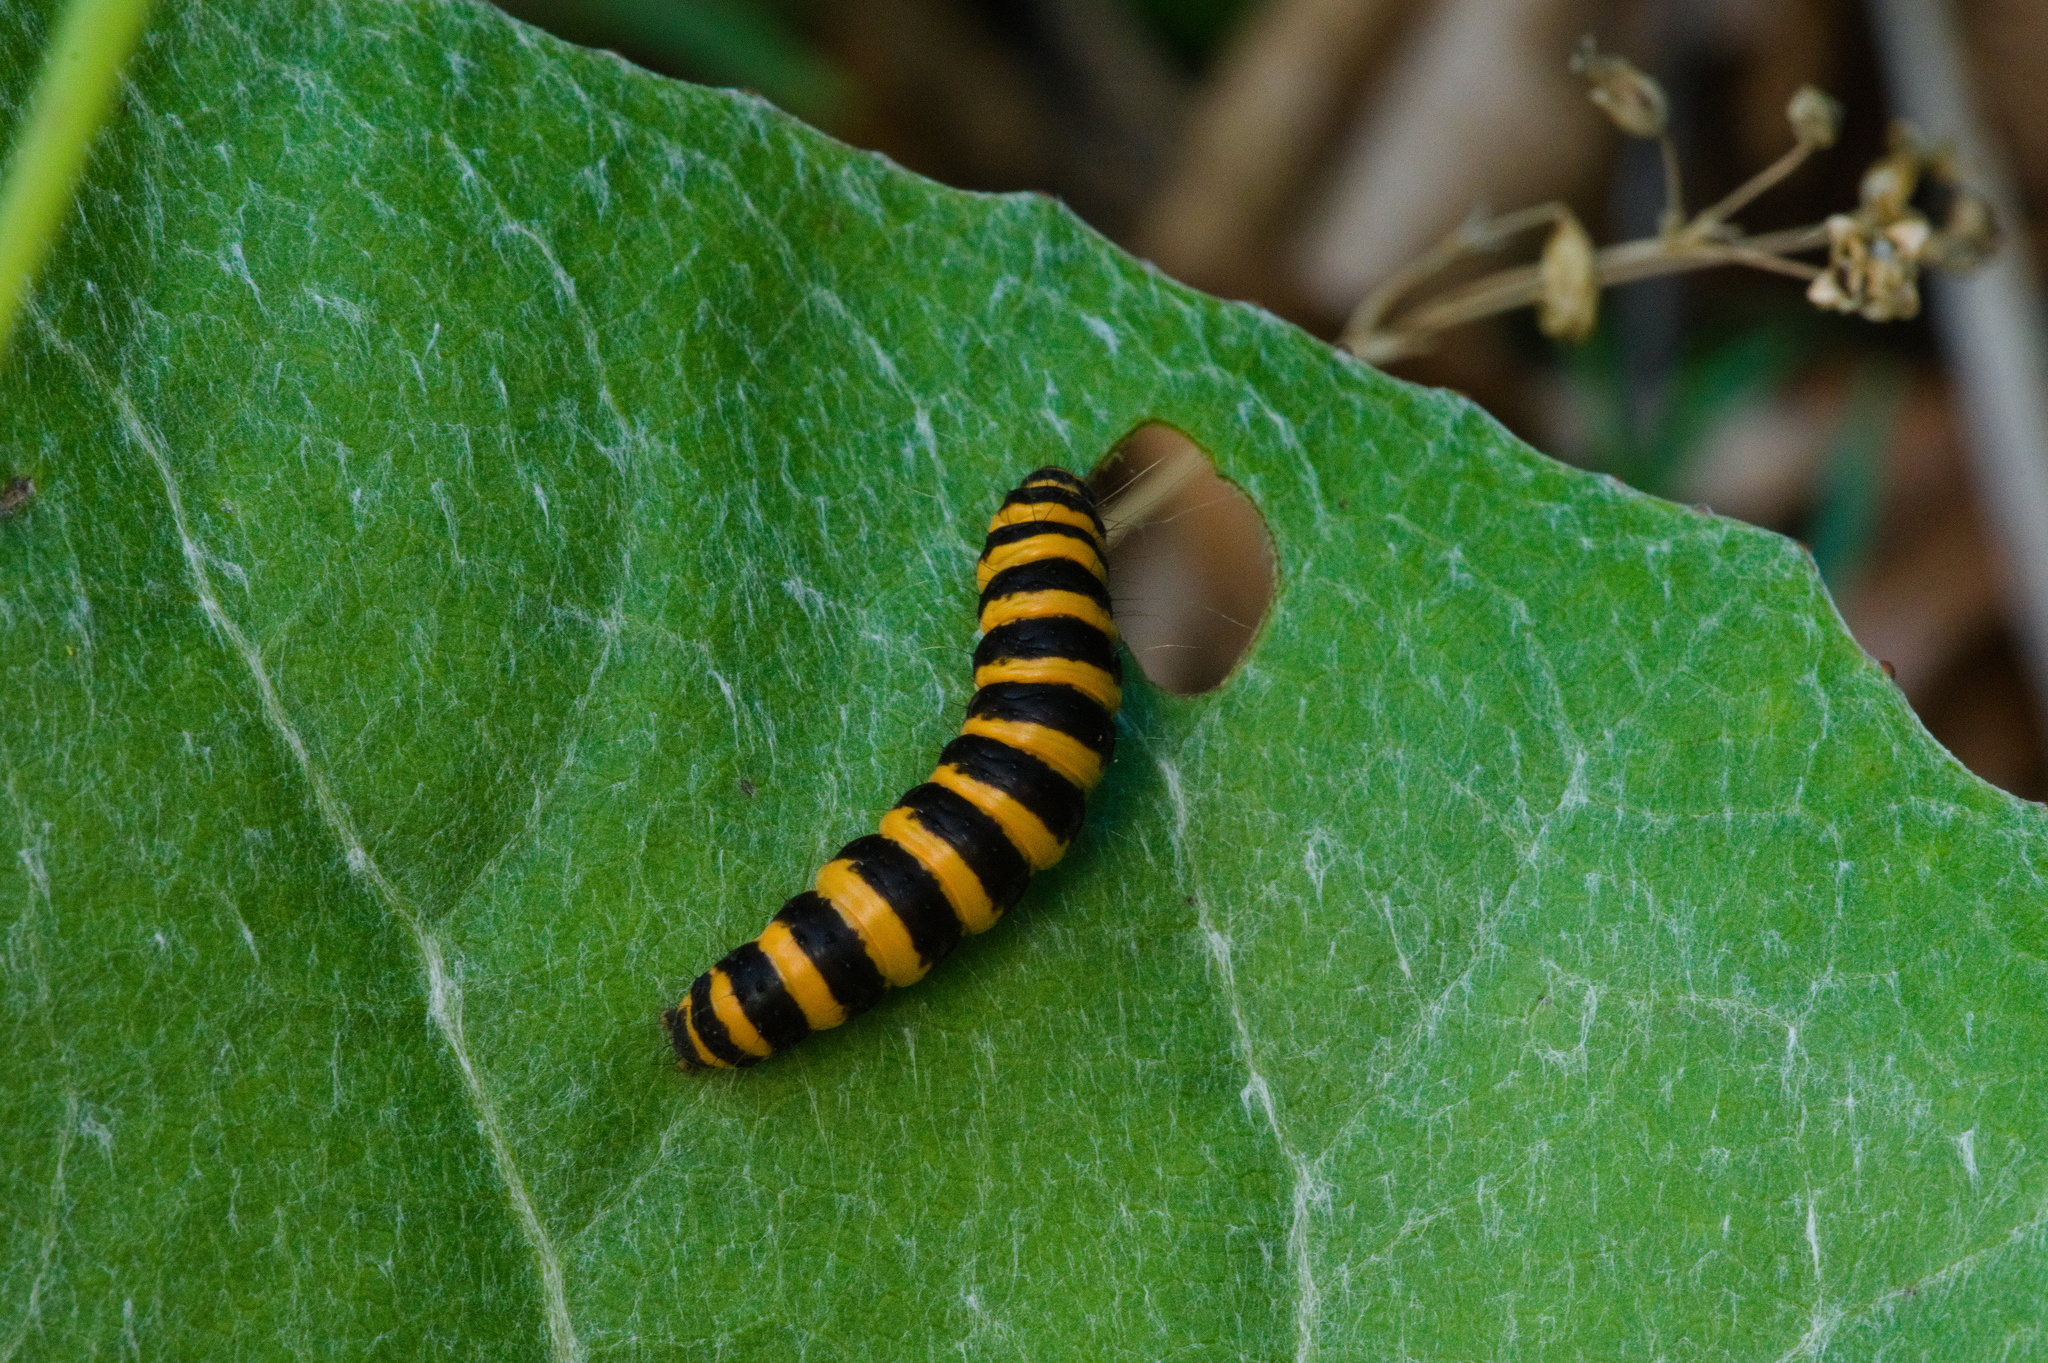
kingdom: Animalia
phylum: Arthropoda
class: Insecta
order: Lepidoptera
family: Erebidae
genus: Tyria
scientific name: Tyria jacobaeae
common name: Cinnabar
